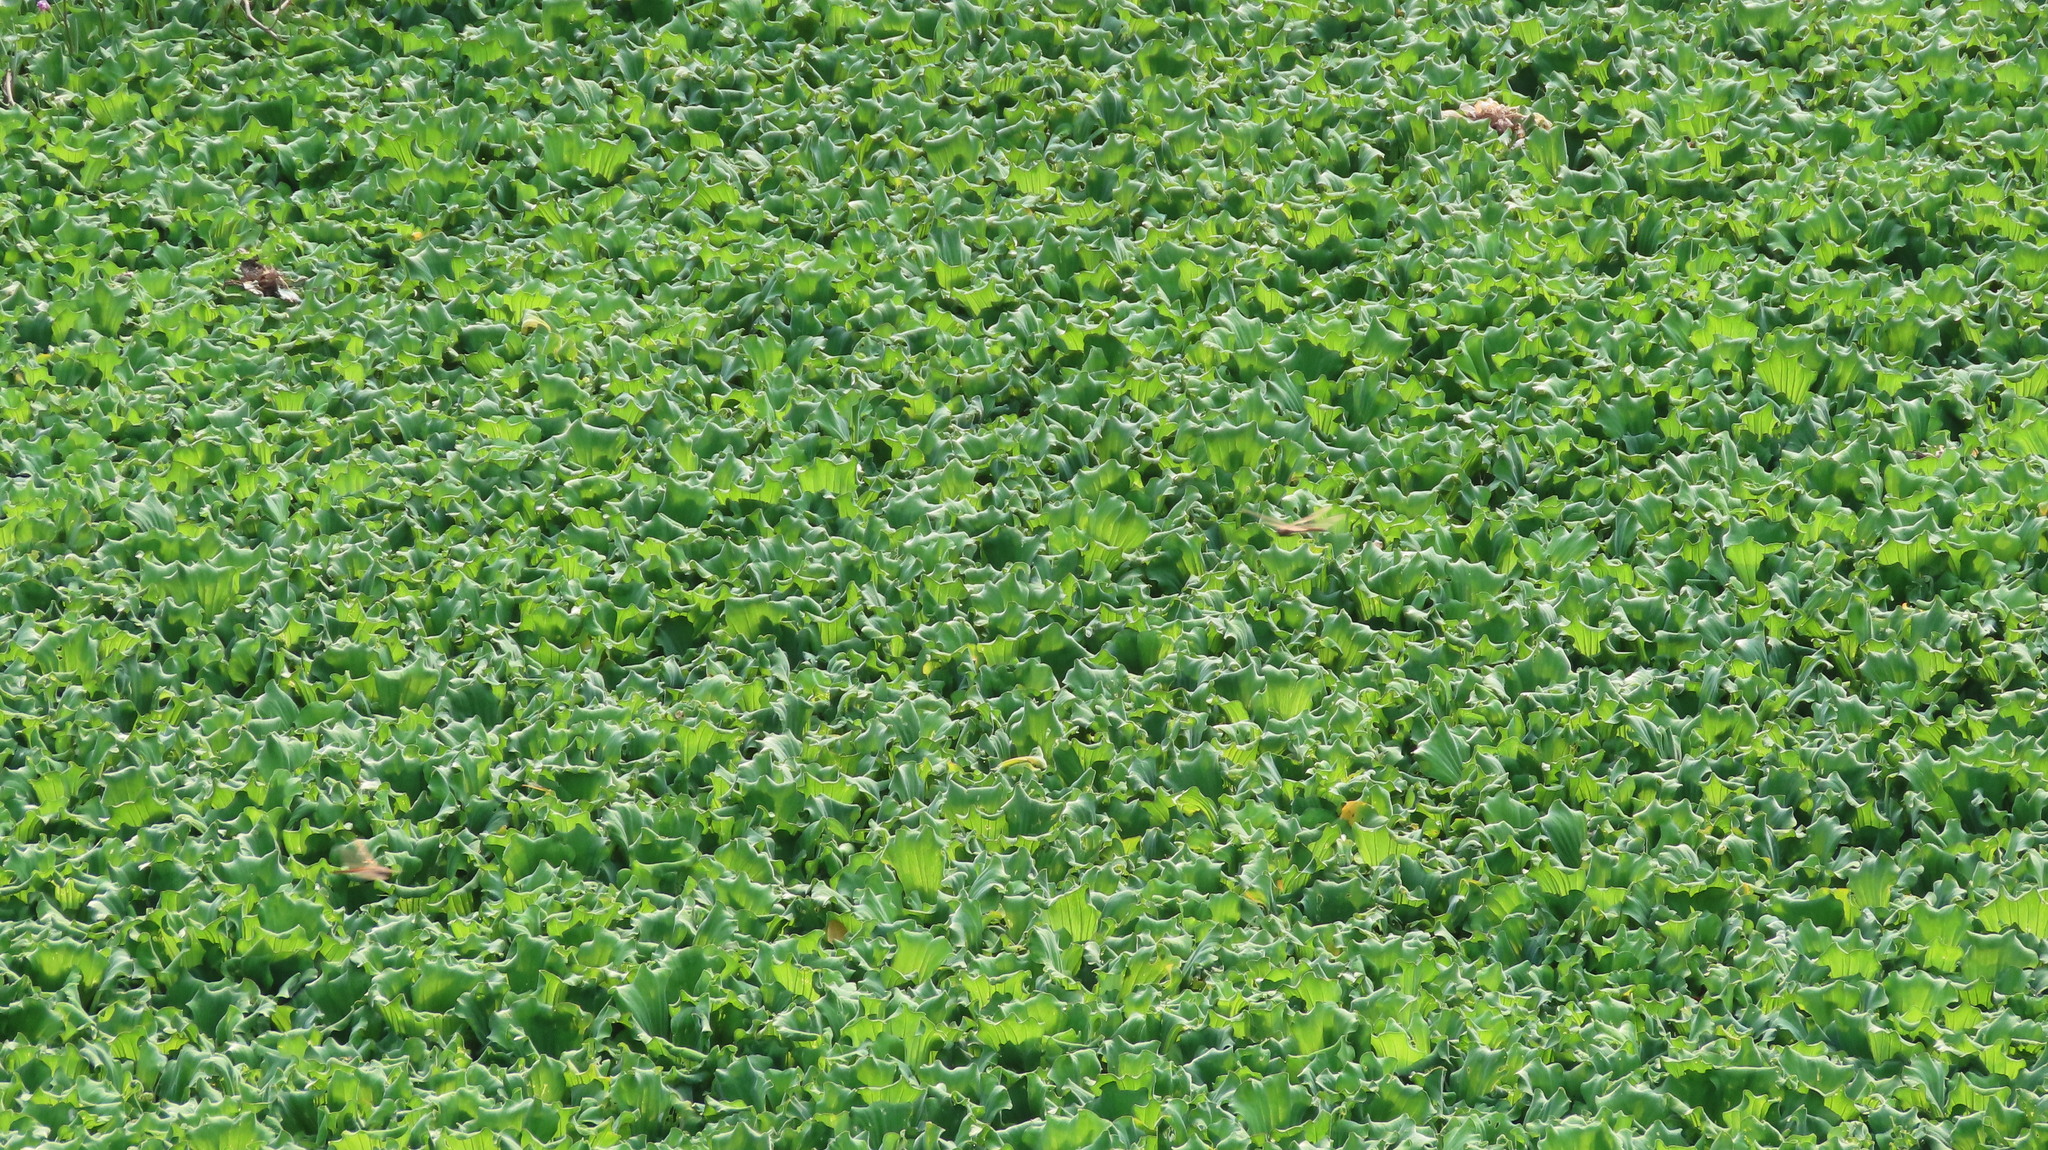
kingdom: Plantae
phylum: Tracheophyta
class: Liliopsida
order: Alismatales
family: Araceae
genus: Pistia
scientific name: Pistia stratiotes
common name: Water lettuce
